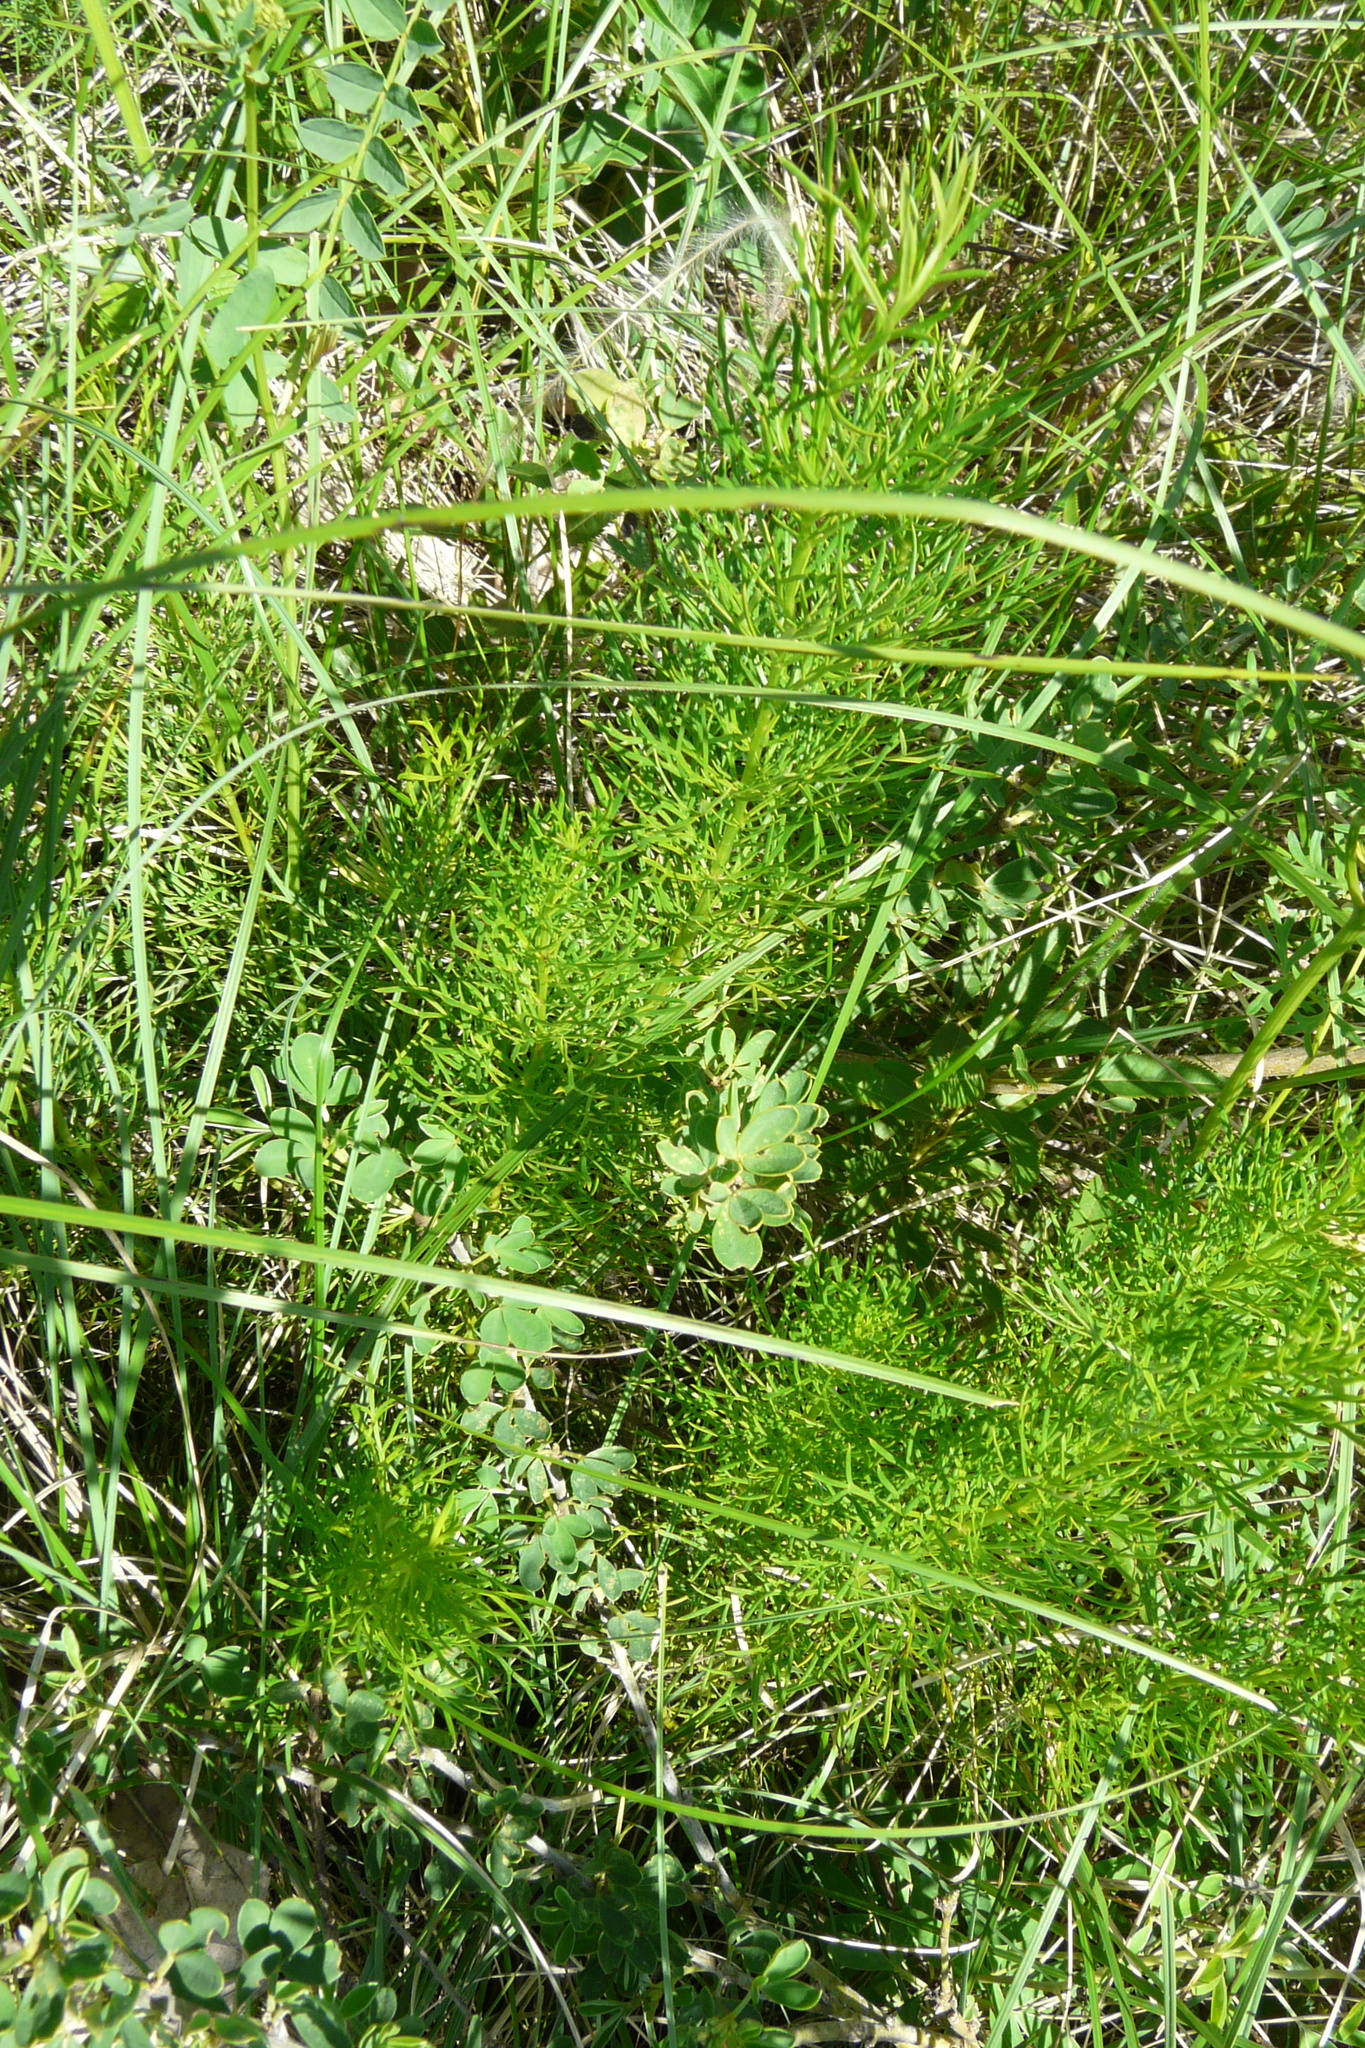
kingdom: Plantae
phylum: Tracheophyta
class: Magnoliopsida
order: Ranunculales
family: Ranunculaceae
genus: Adonis
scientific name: Adonis vernalis
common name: Yellow pheasants-eye
